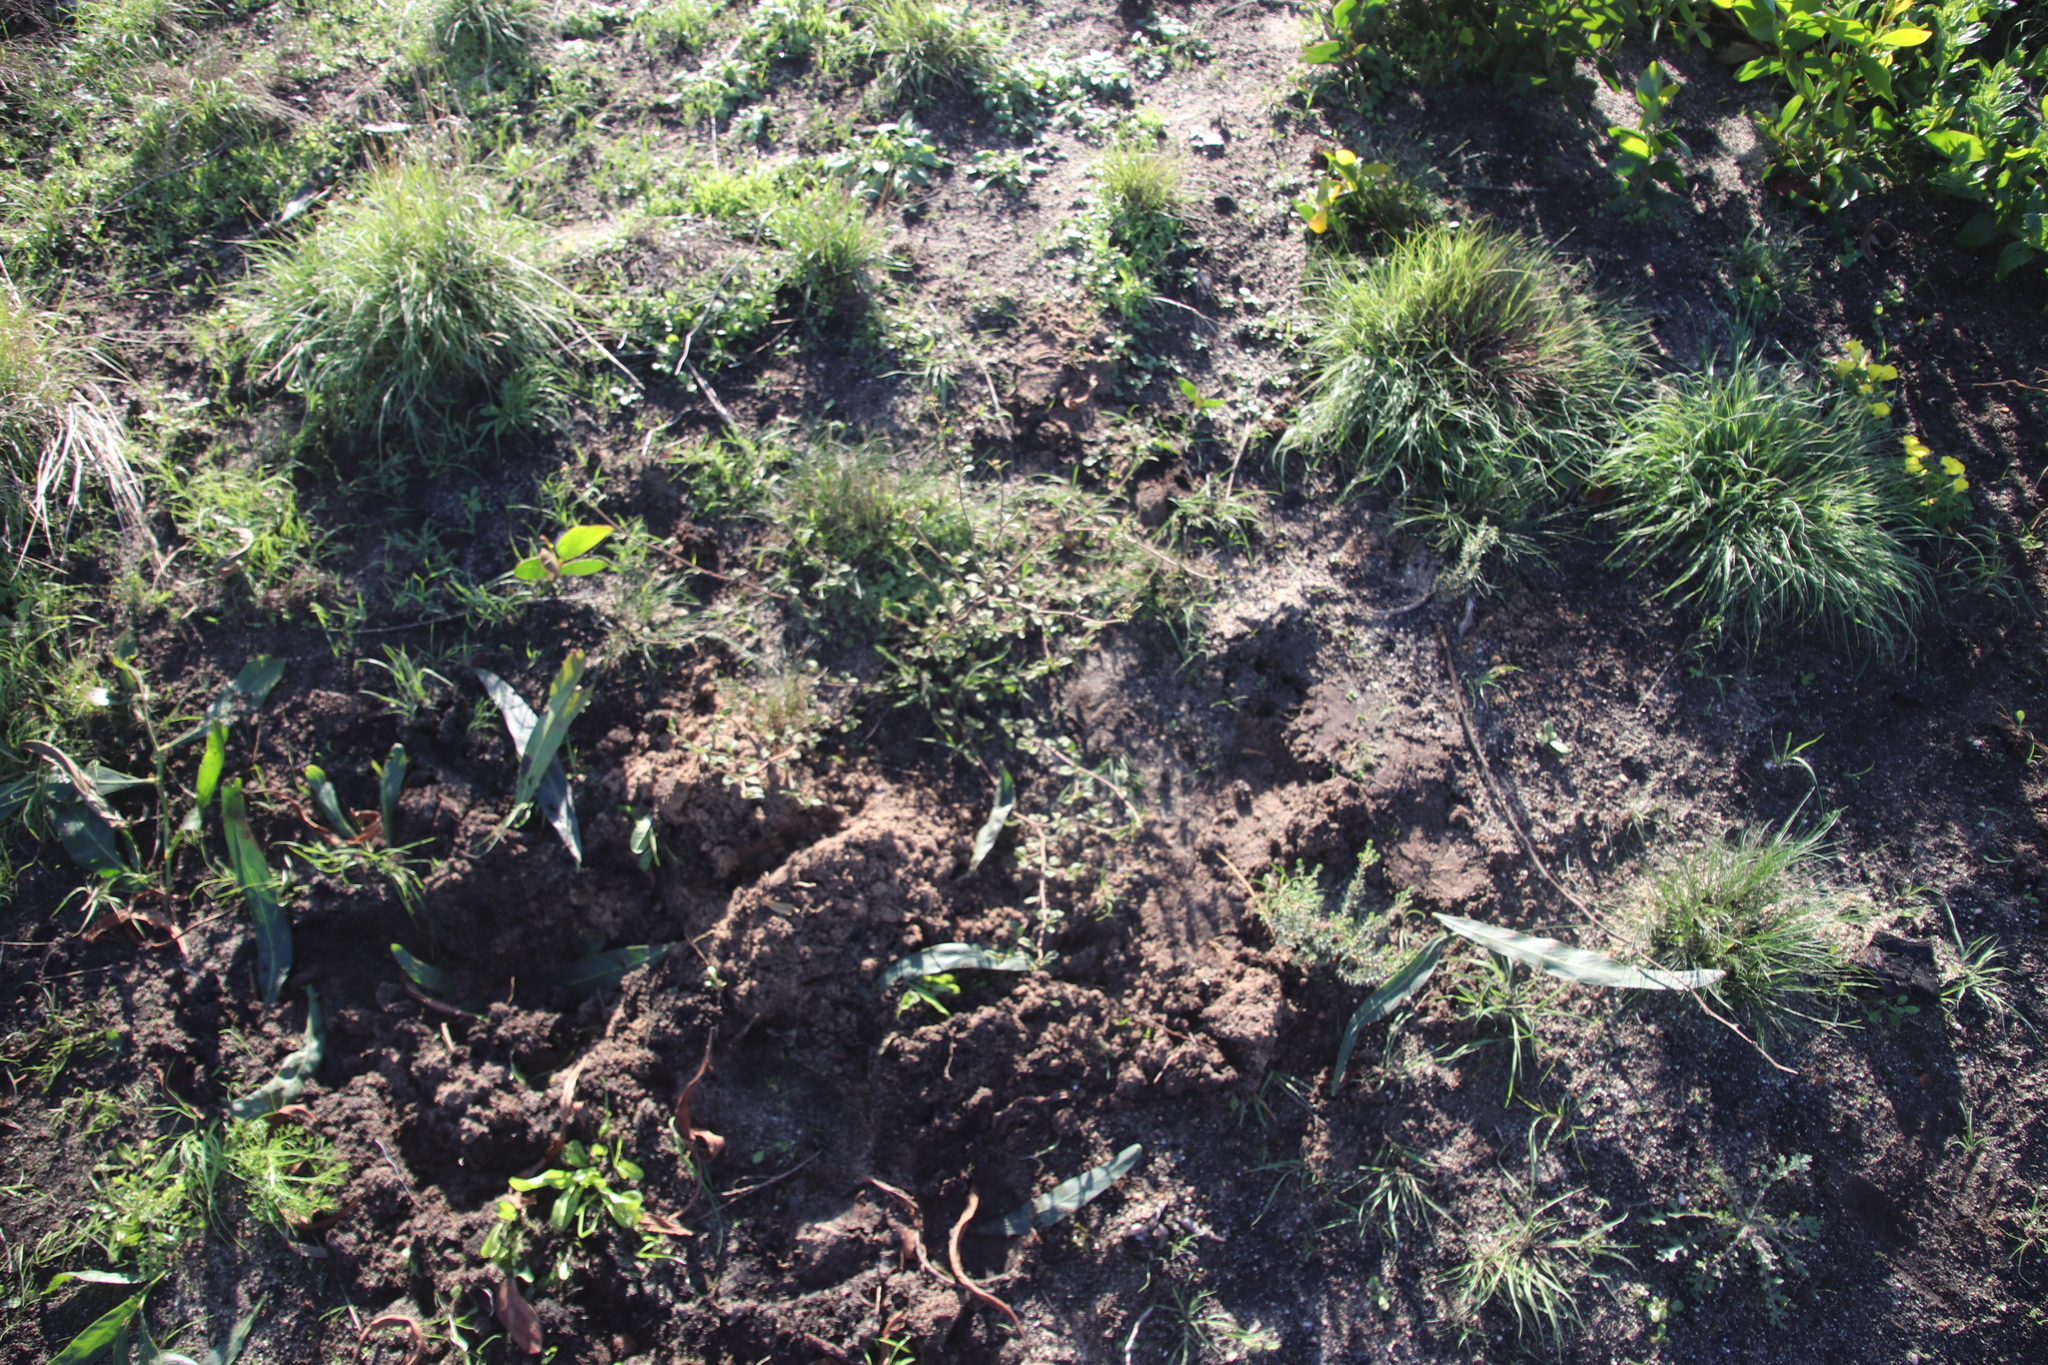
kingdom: Plantae
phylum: Tracheophyta
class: Magnoliopsida
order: Malvales
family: Malvaceae
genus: Hermannia
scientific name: Hermannia multiflora
